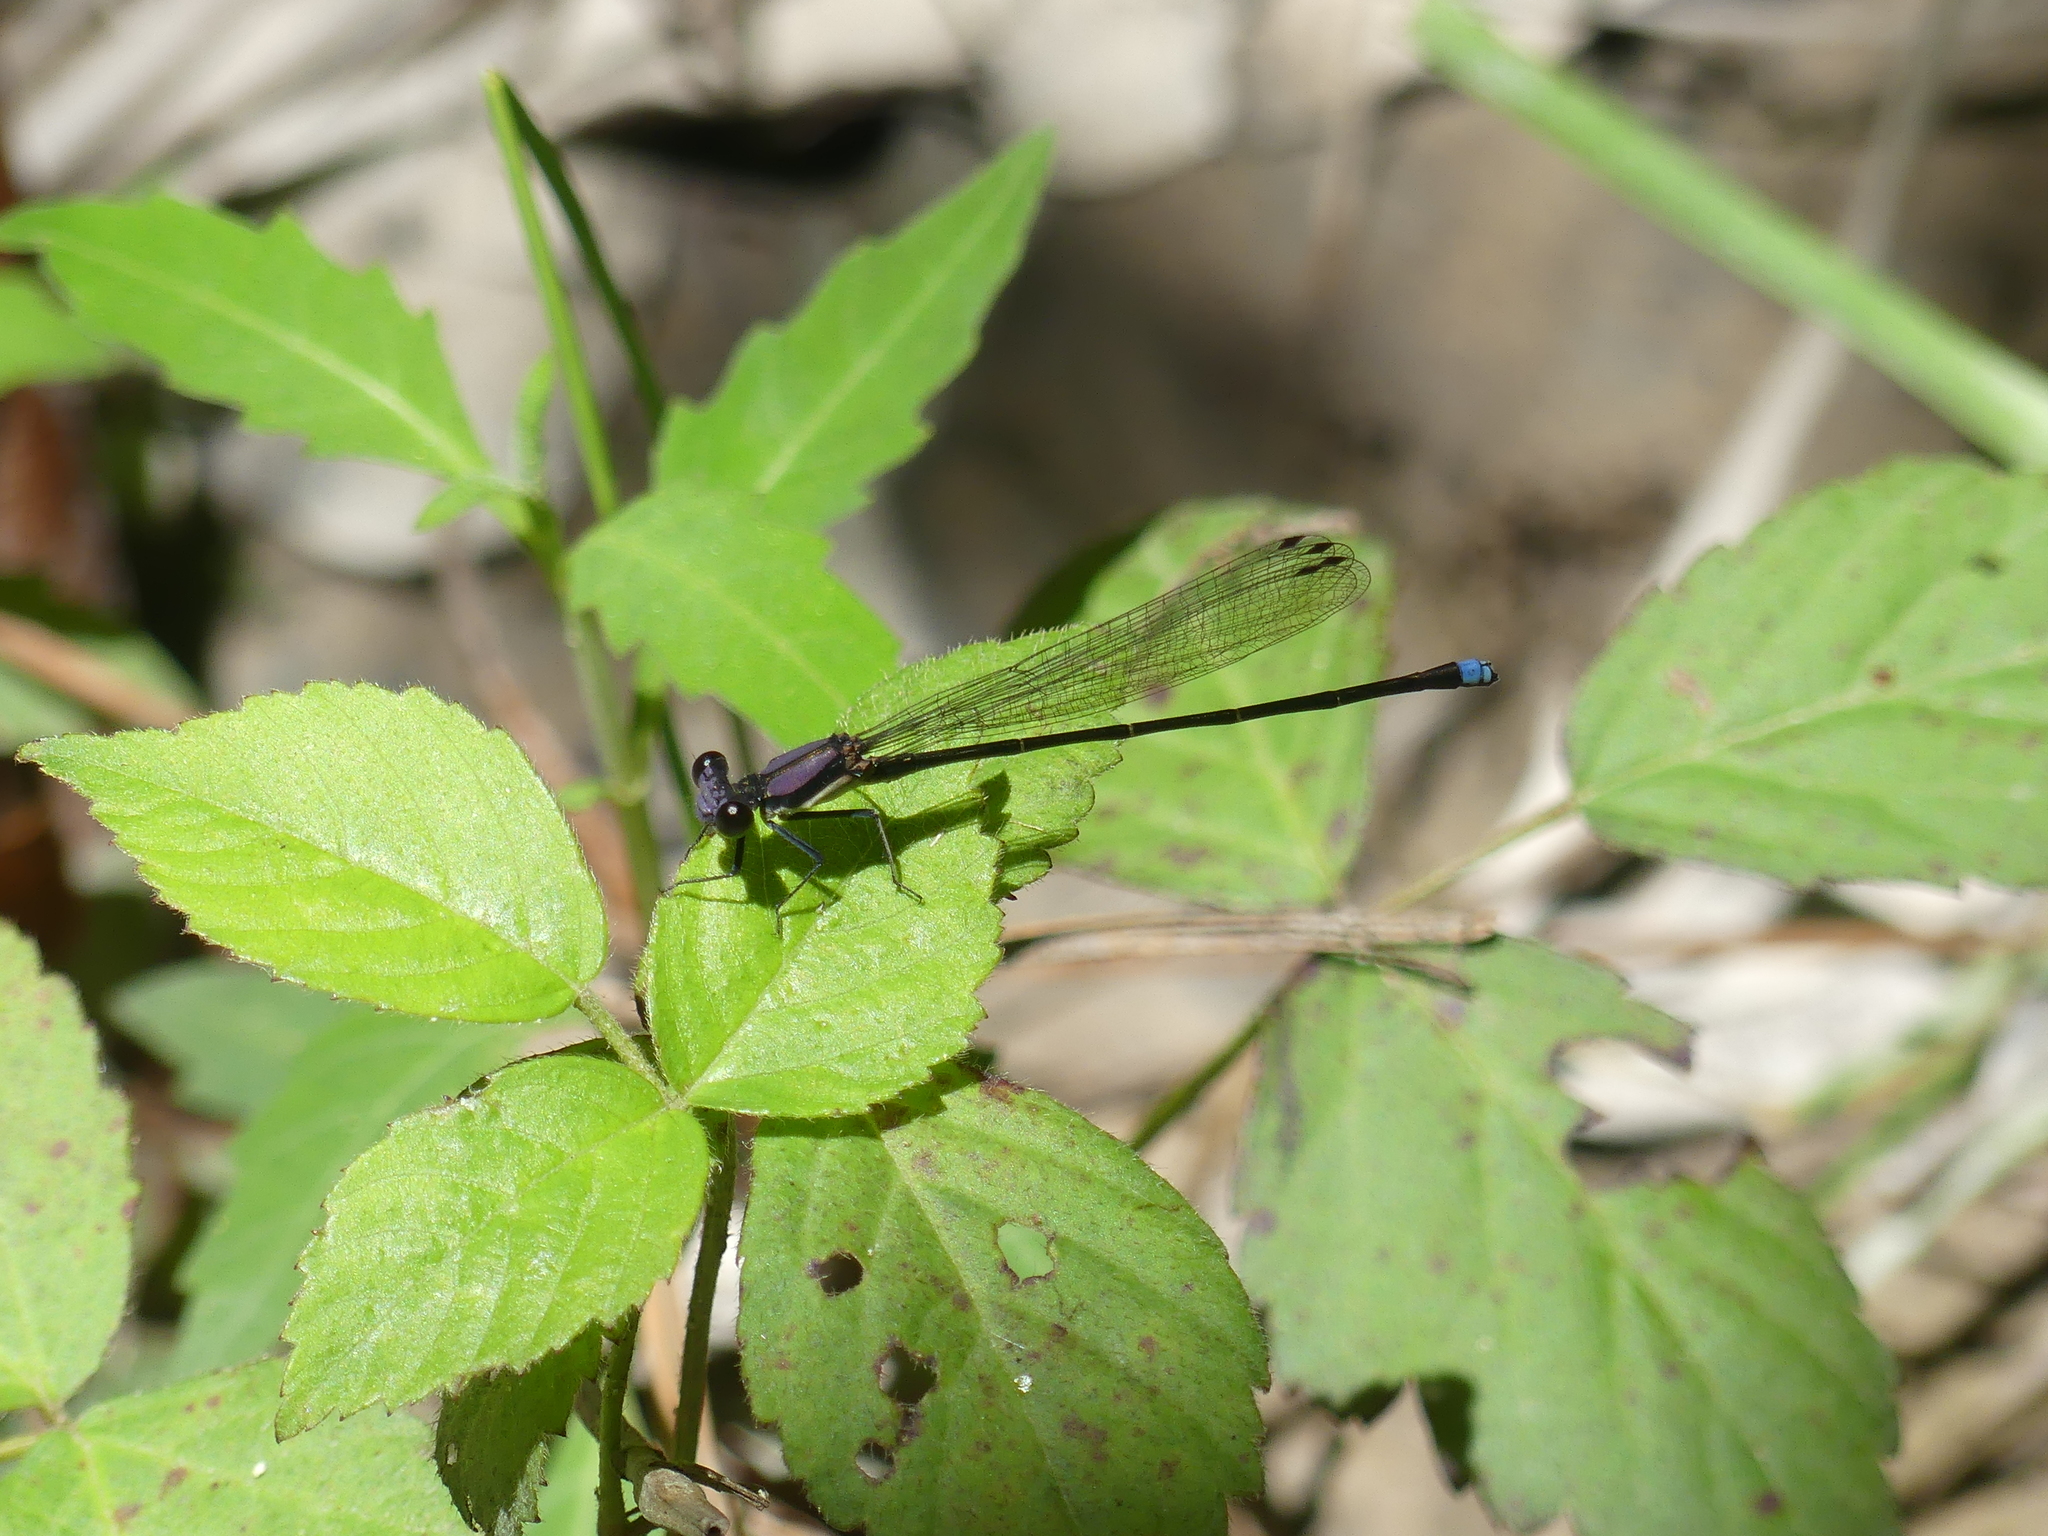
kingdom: Animalia
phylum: Arthropoda
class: Insecta
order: Odonata
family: Coenagrionidae
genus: Argia
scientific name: Argia tibialis
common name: Blue-tipped dancer
